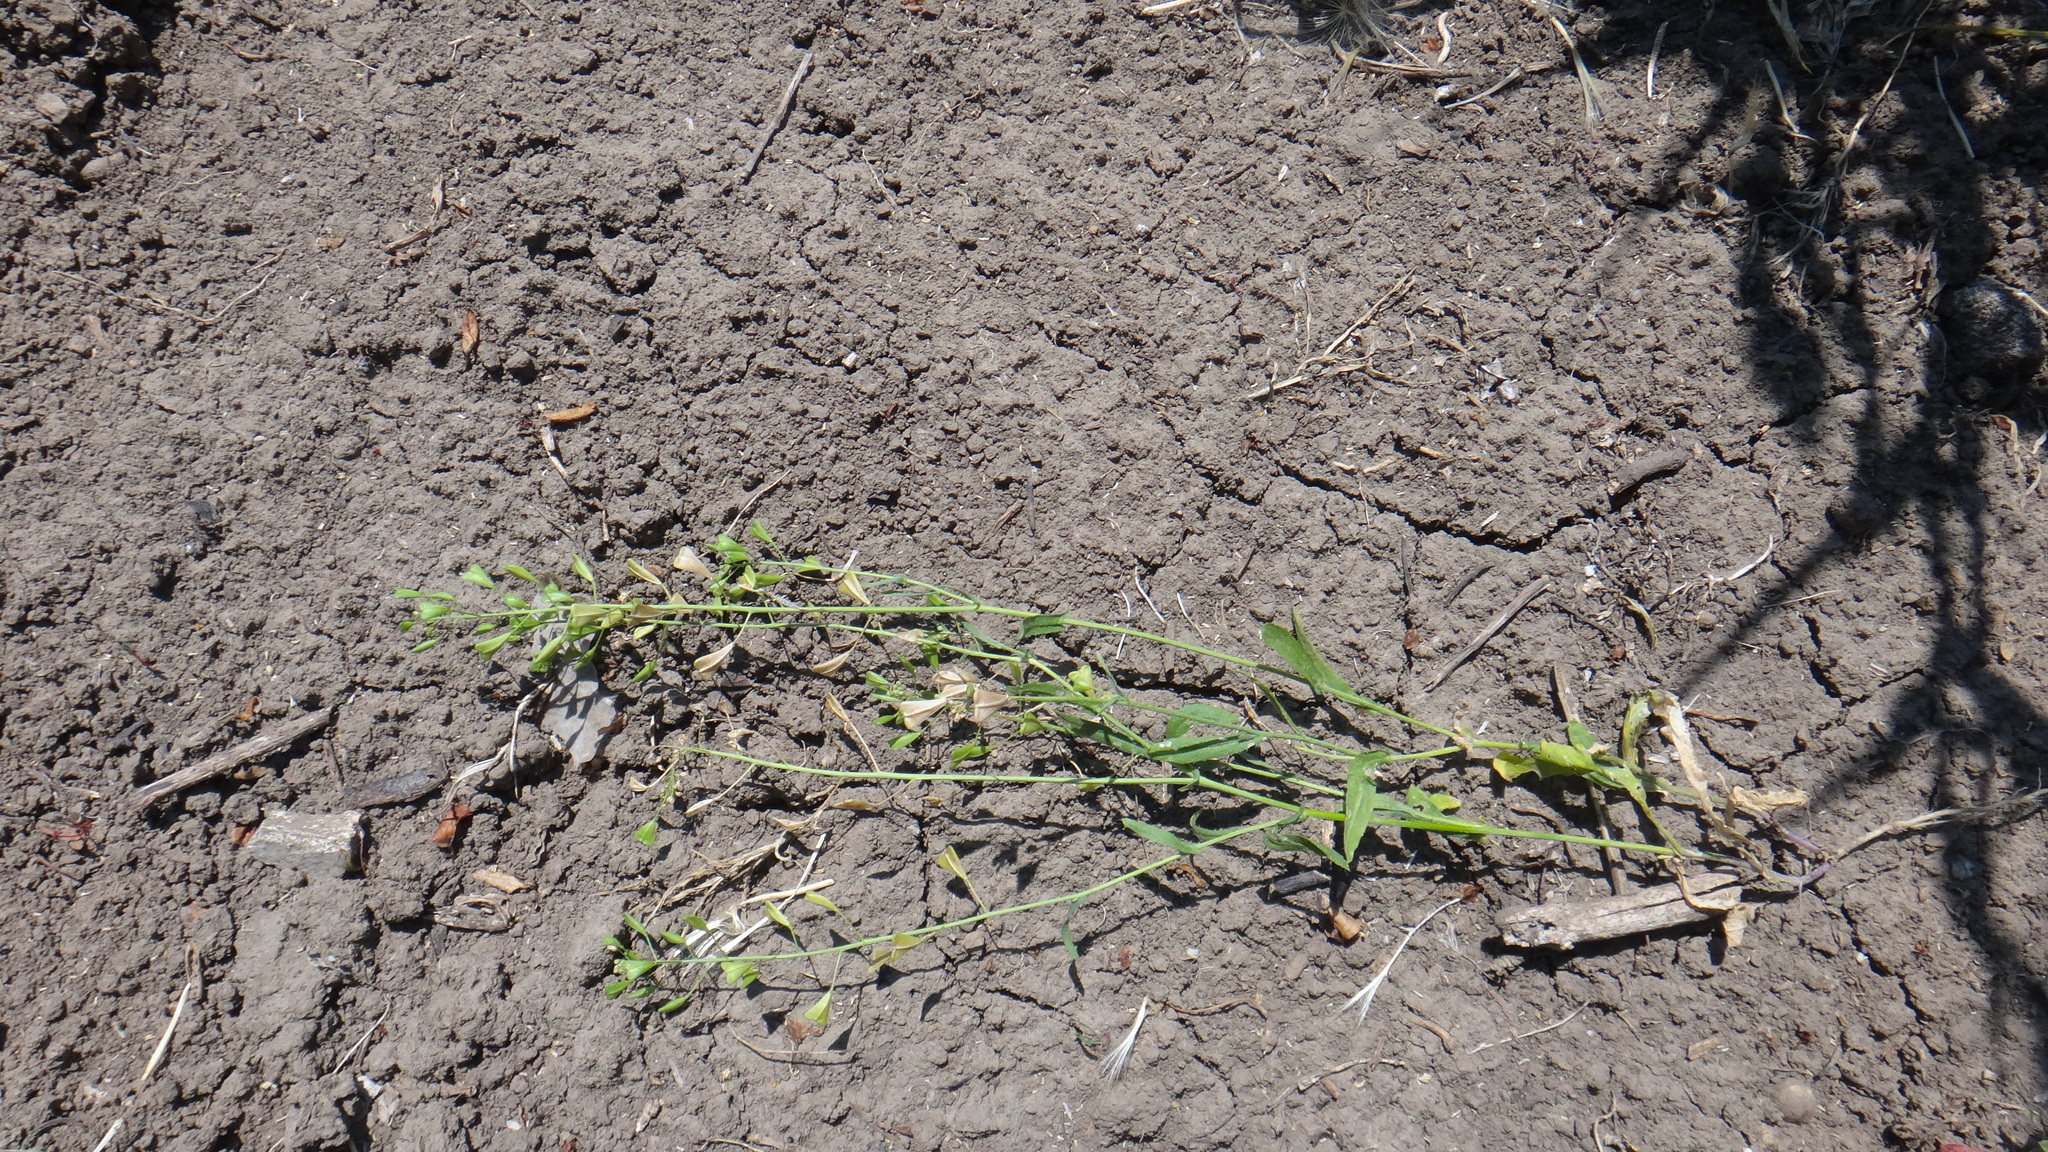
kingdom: Plantae
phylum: Tracheophyta
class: Magnoliopsida
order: Brassicales
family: Brassicaceae
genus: Capsella
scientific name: Capsella bursa-pastoris
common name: Shepherd's purse
